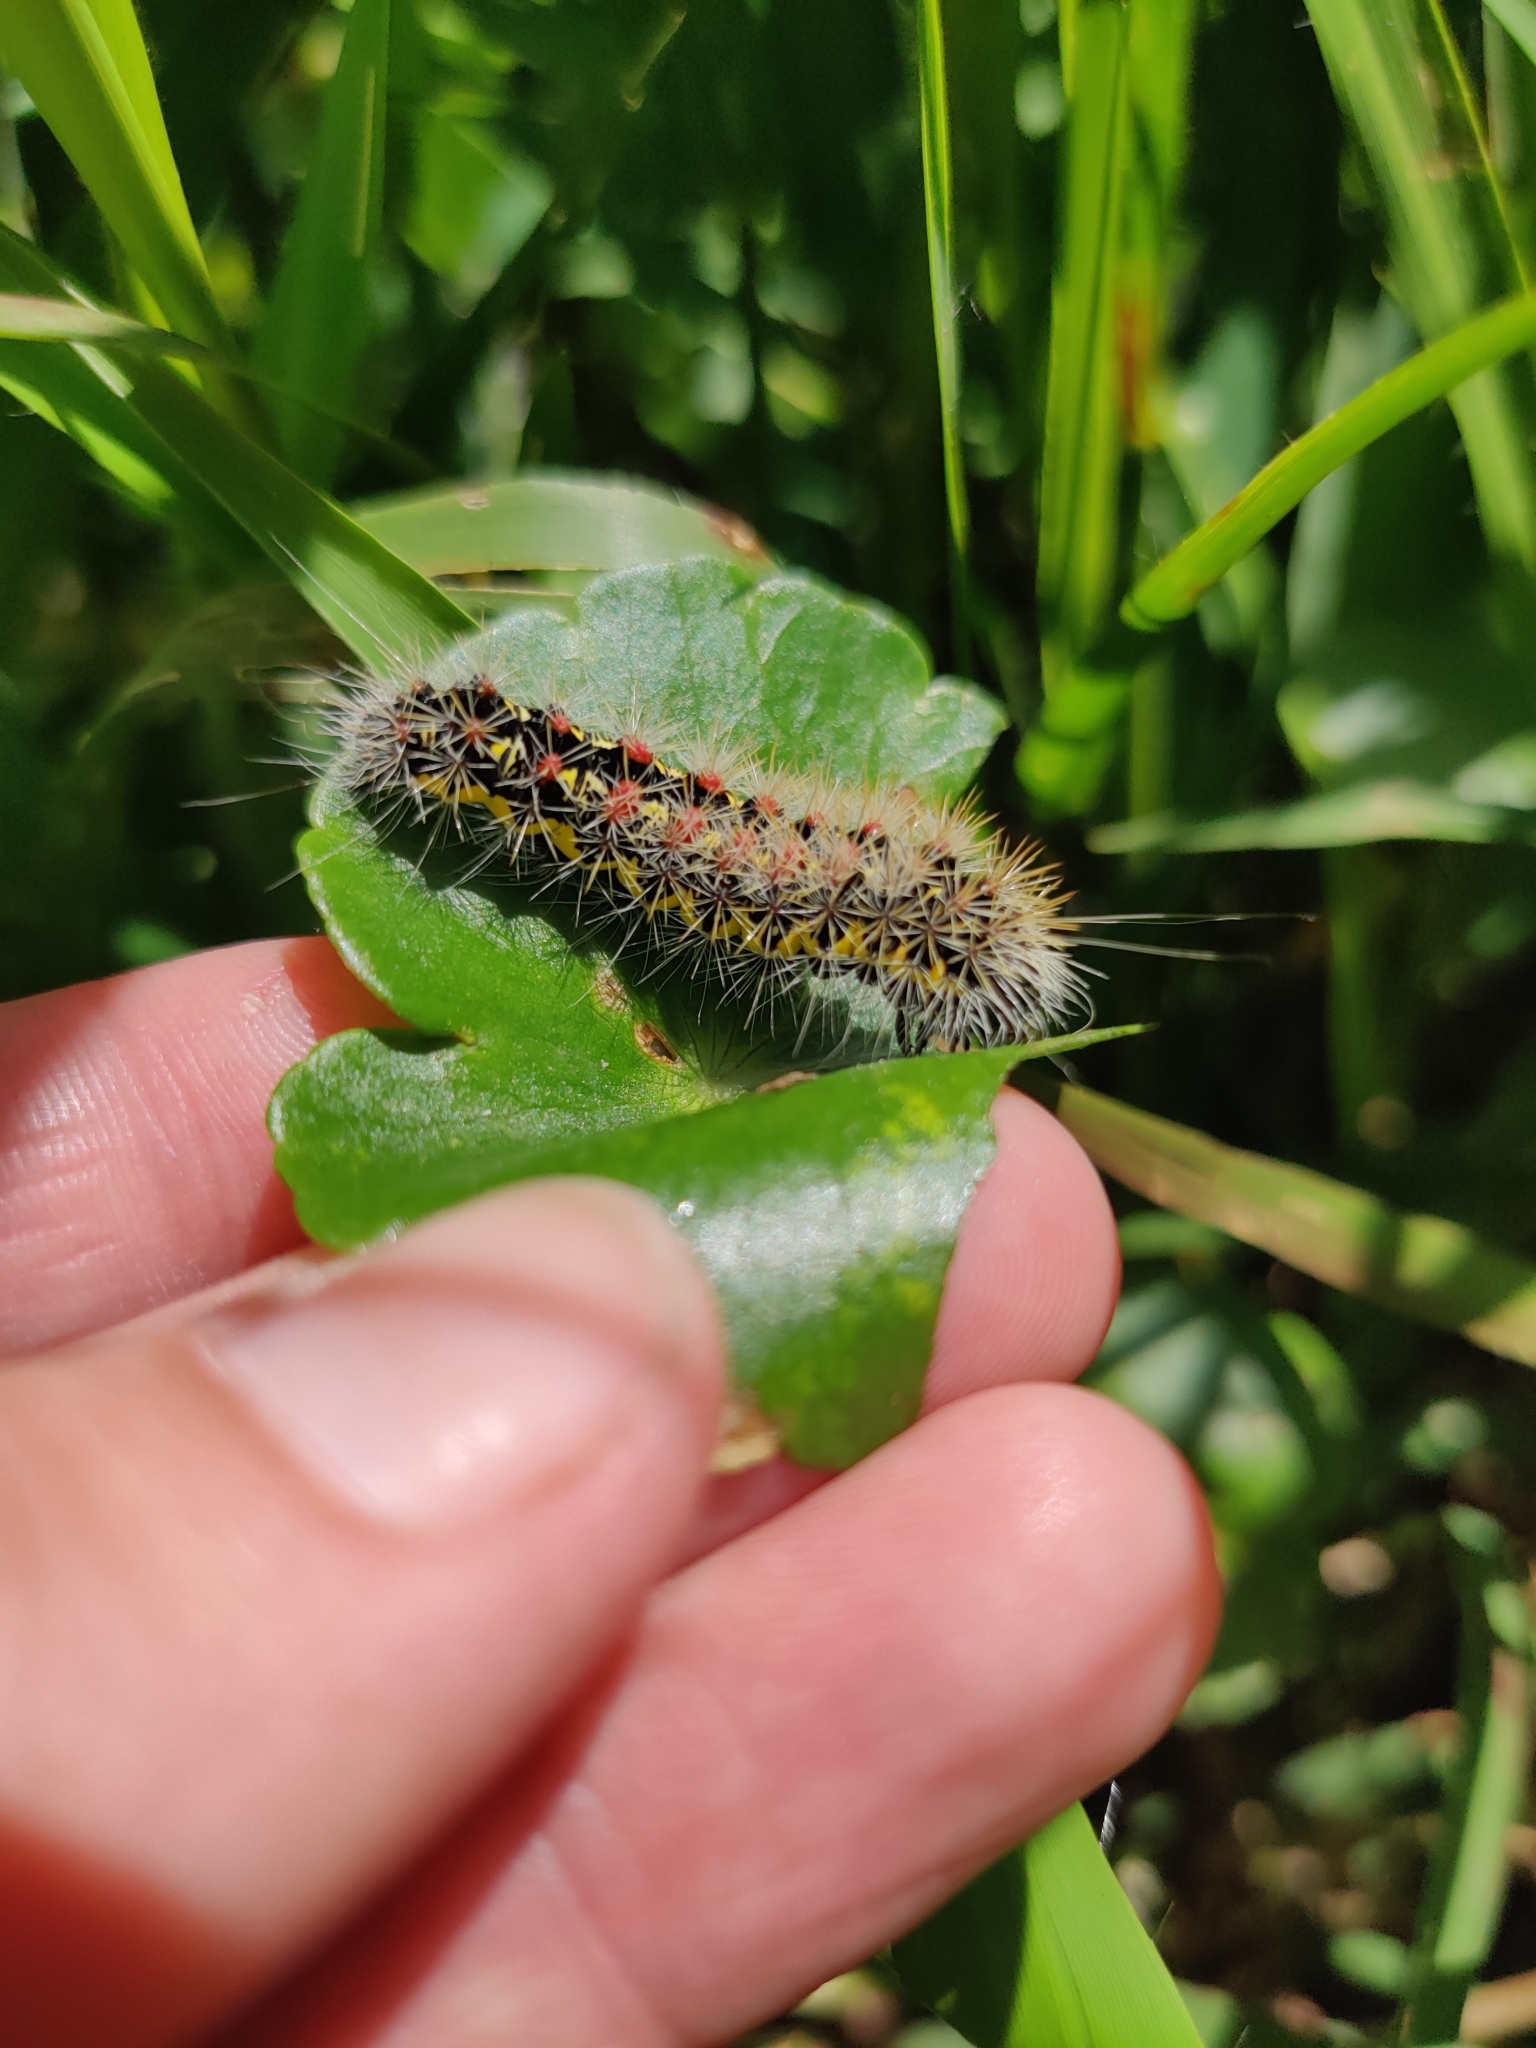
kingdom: Animalia
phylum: Arthropoda
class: Insecta
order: Lepidoptera
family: Noctuidae
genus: Acronicta
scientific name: Acronicta oblinita
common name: Smeared dagger
